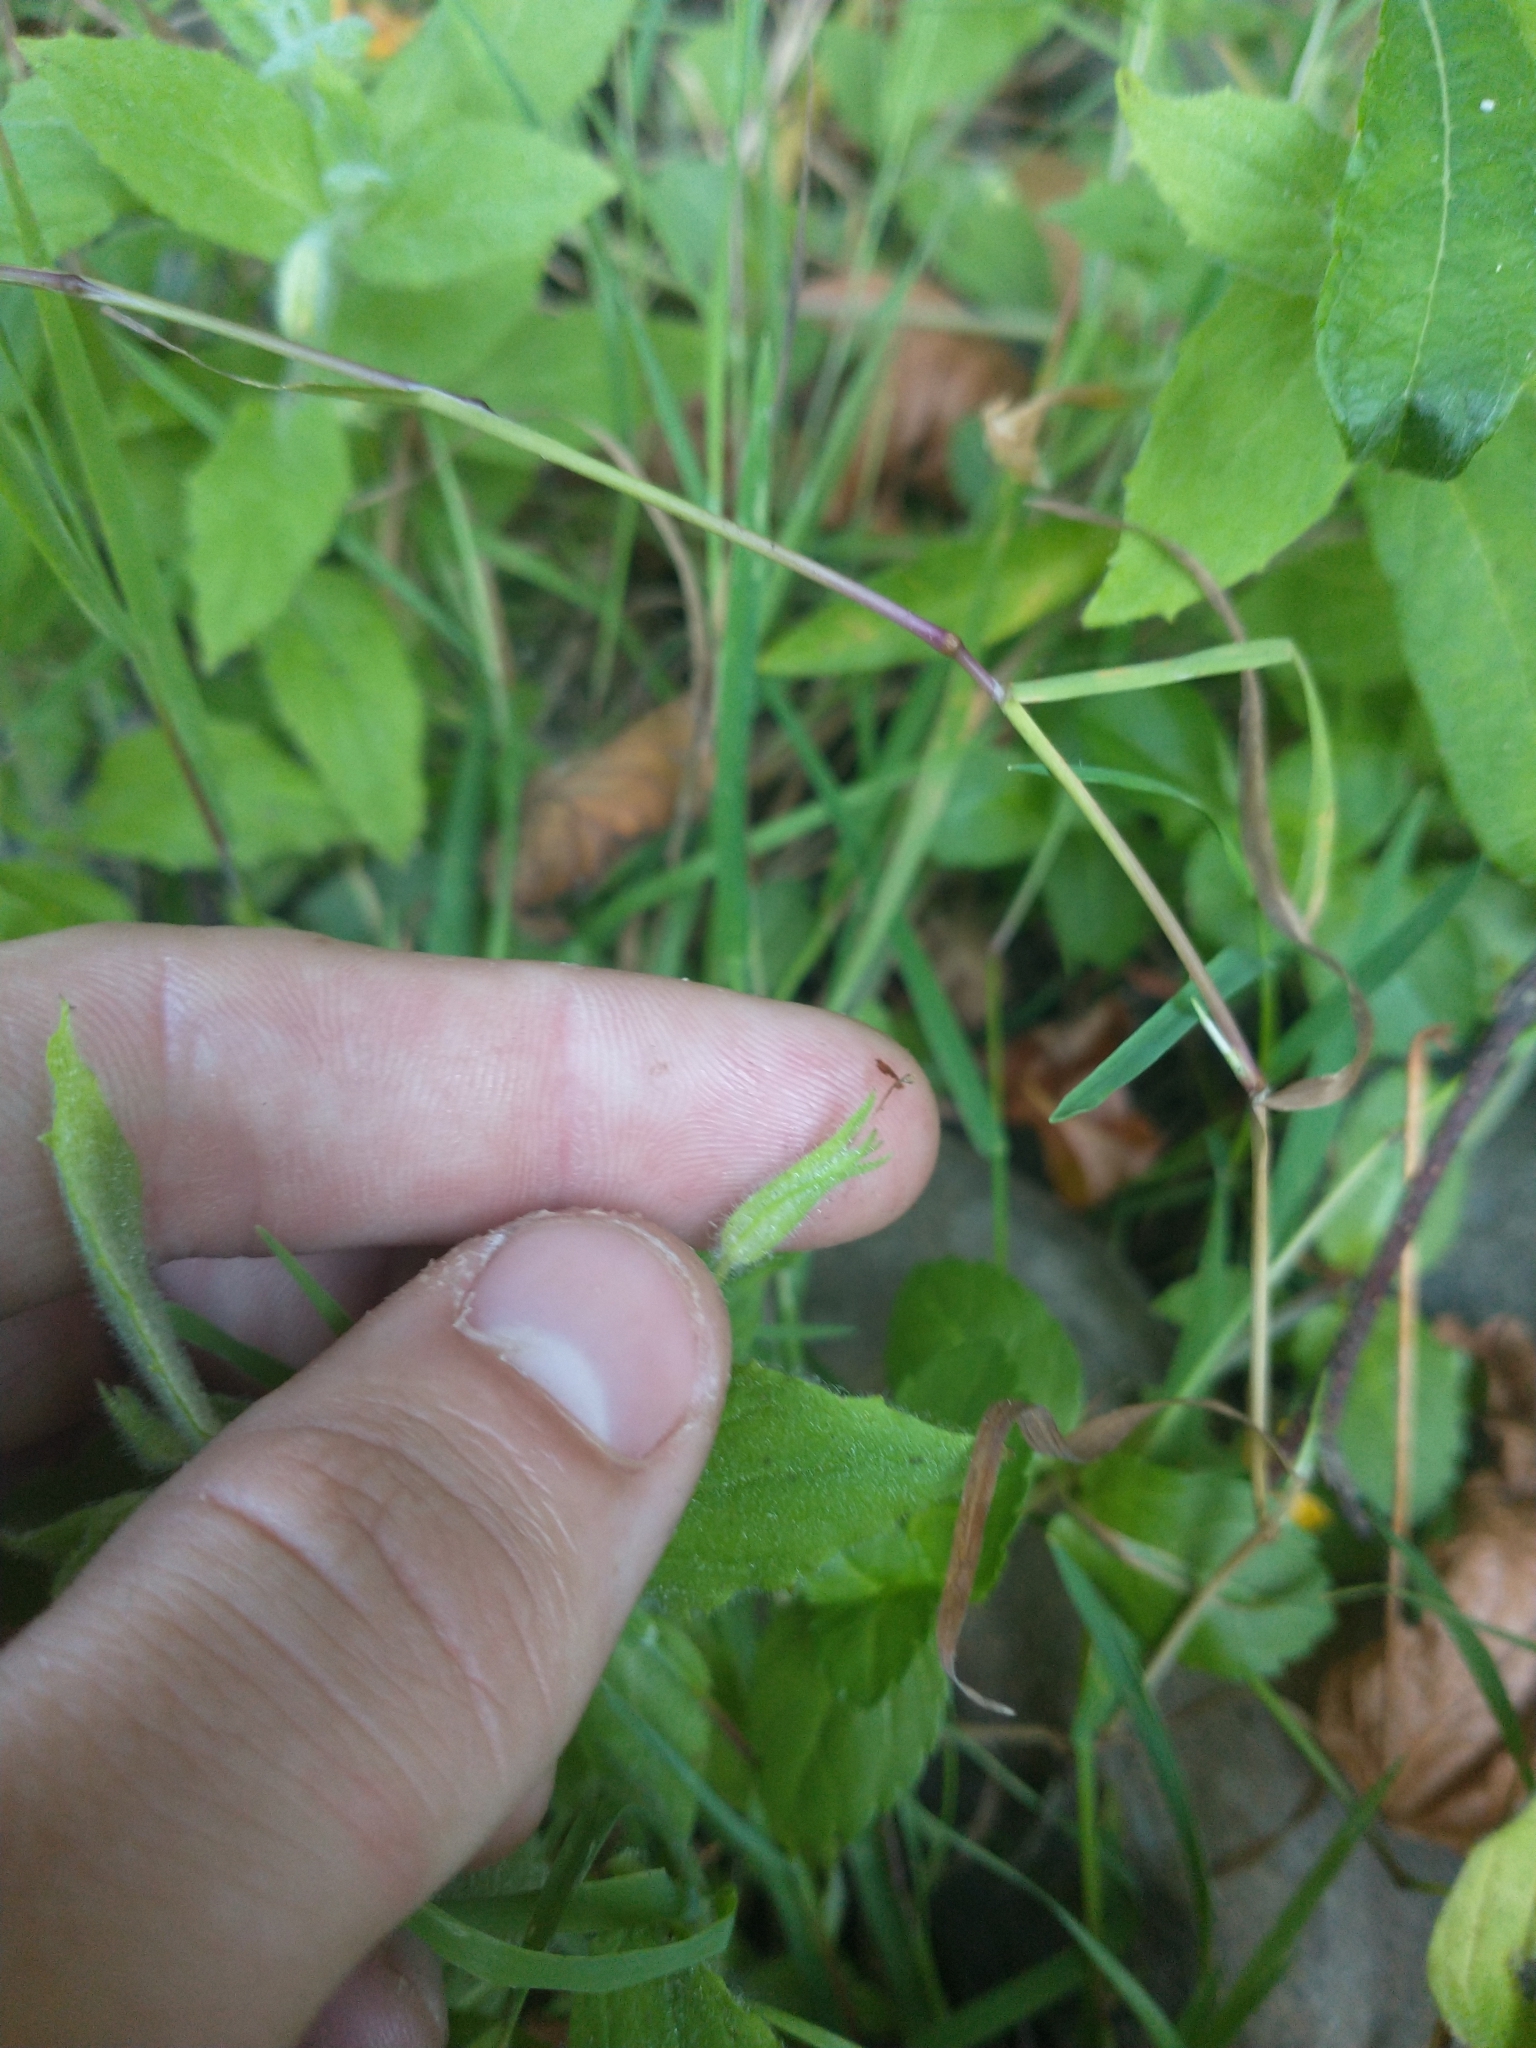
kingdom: Plantae
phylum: Tracheophyta
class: Magnoliopsida
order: Lamiales
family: Phrymaceae
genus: Erythranthe
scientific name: Erythranthe ptilota
